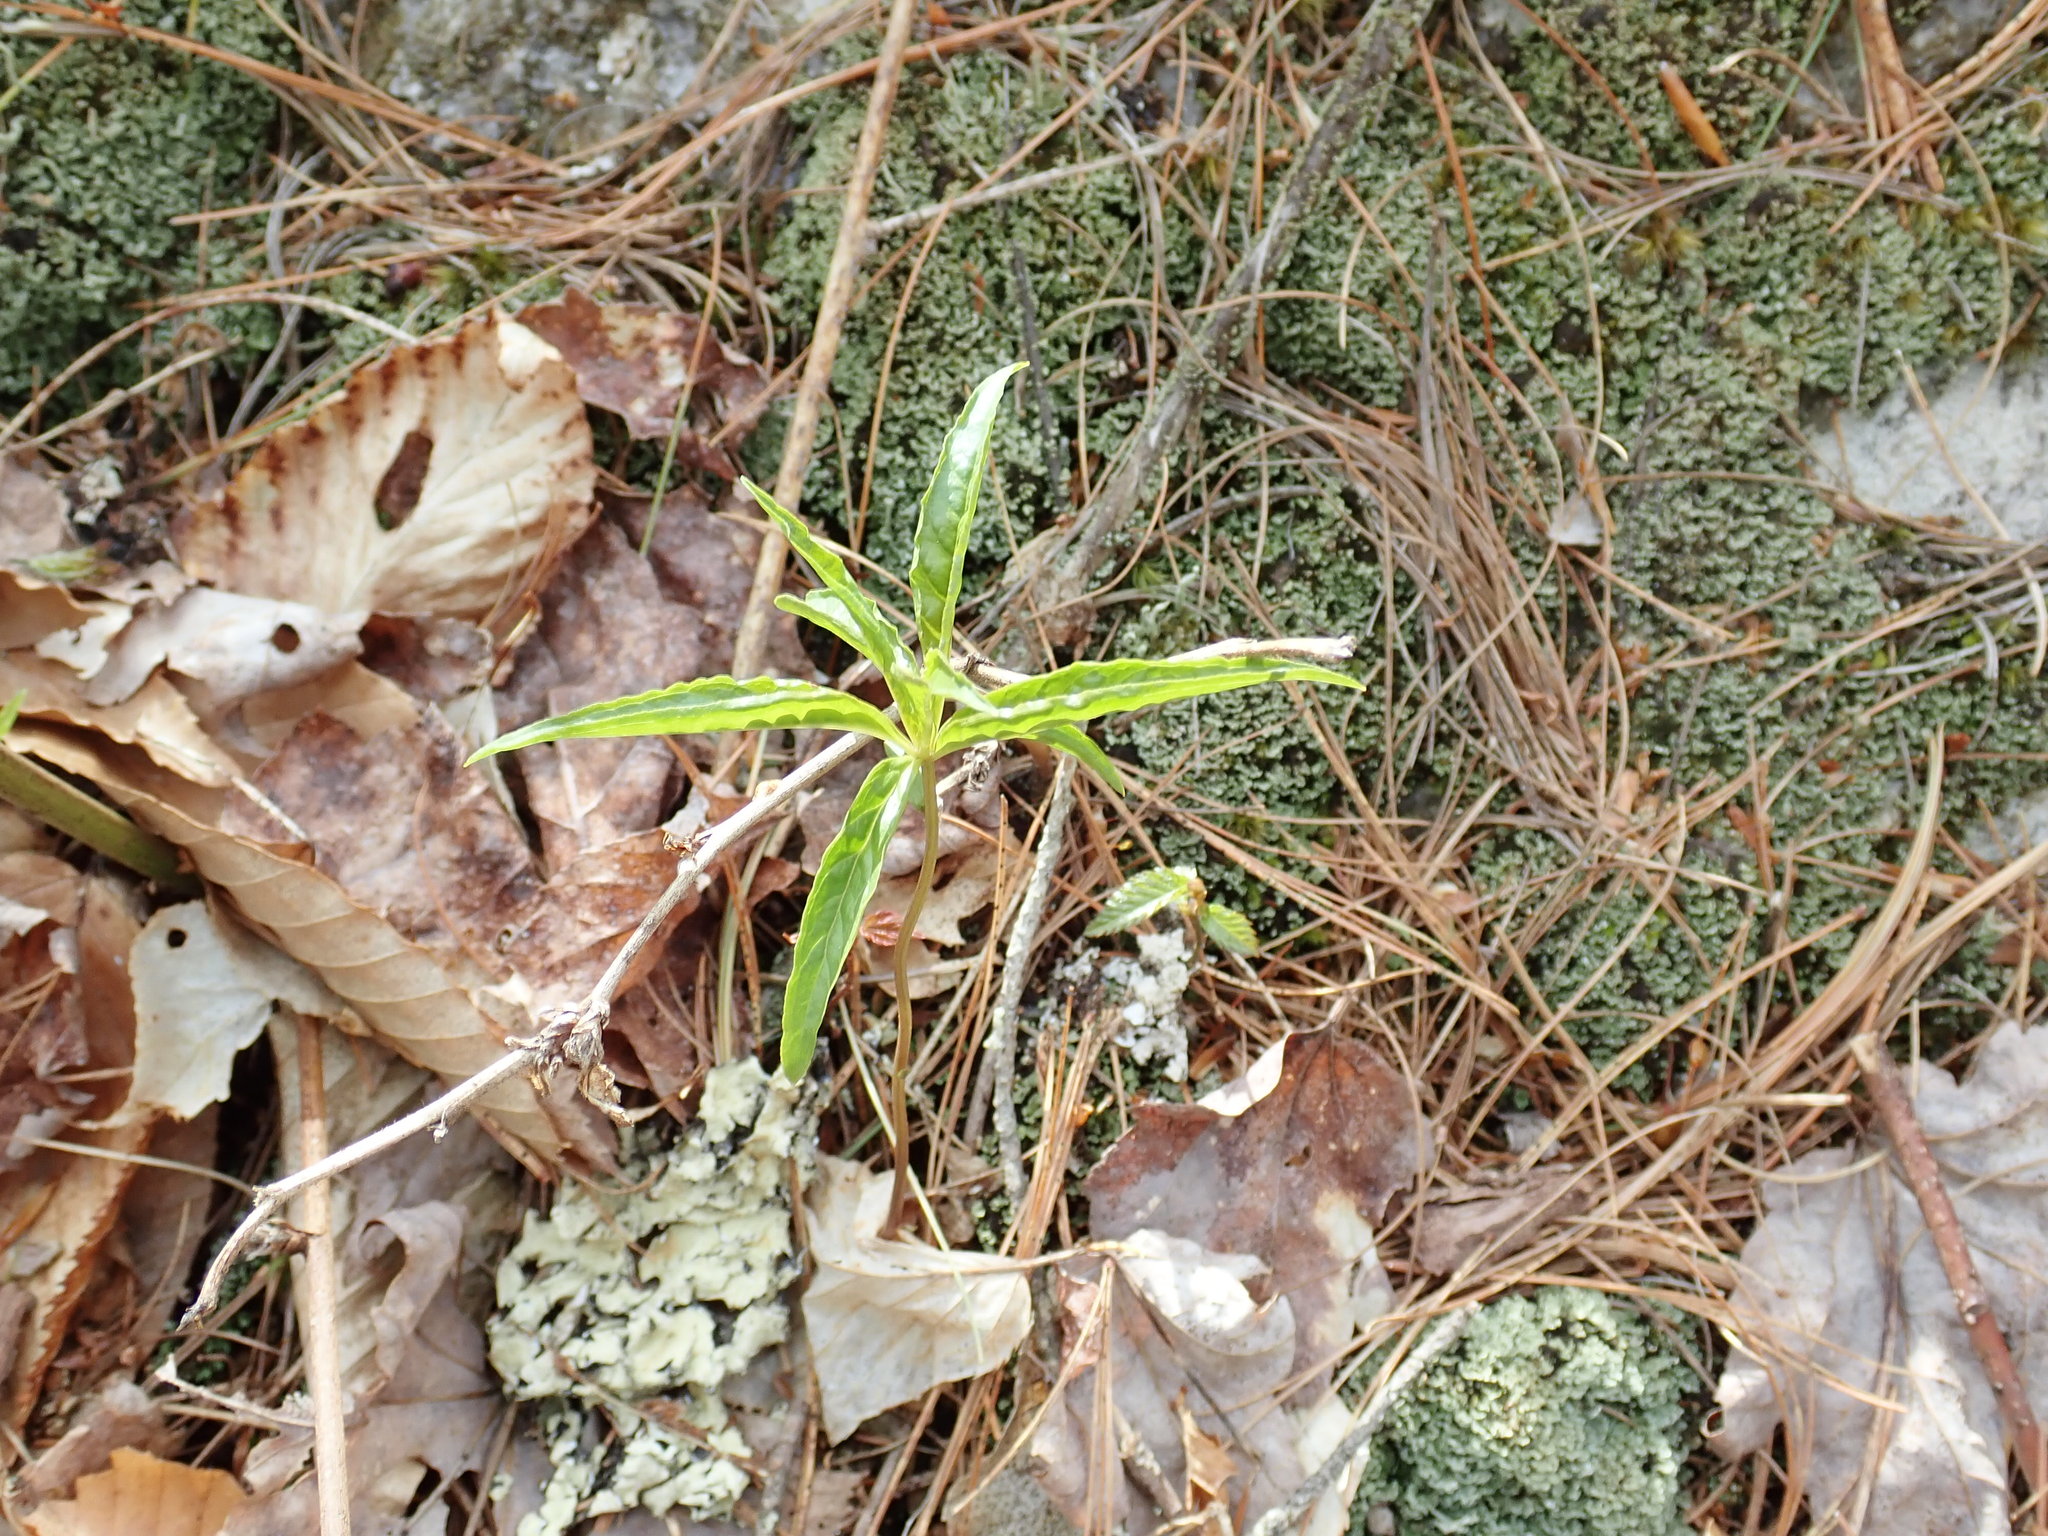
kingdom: Plantae
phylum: Tracheophyta
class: Magnoliopsida
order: Ericales
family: Primulaceae
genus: Lysimachia
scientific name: Lysimachia borealis
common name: American starflower
